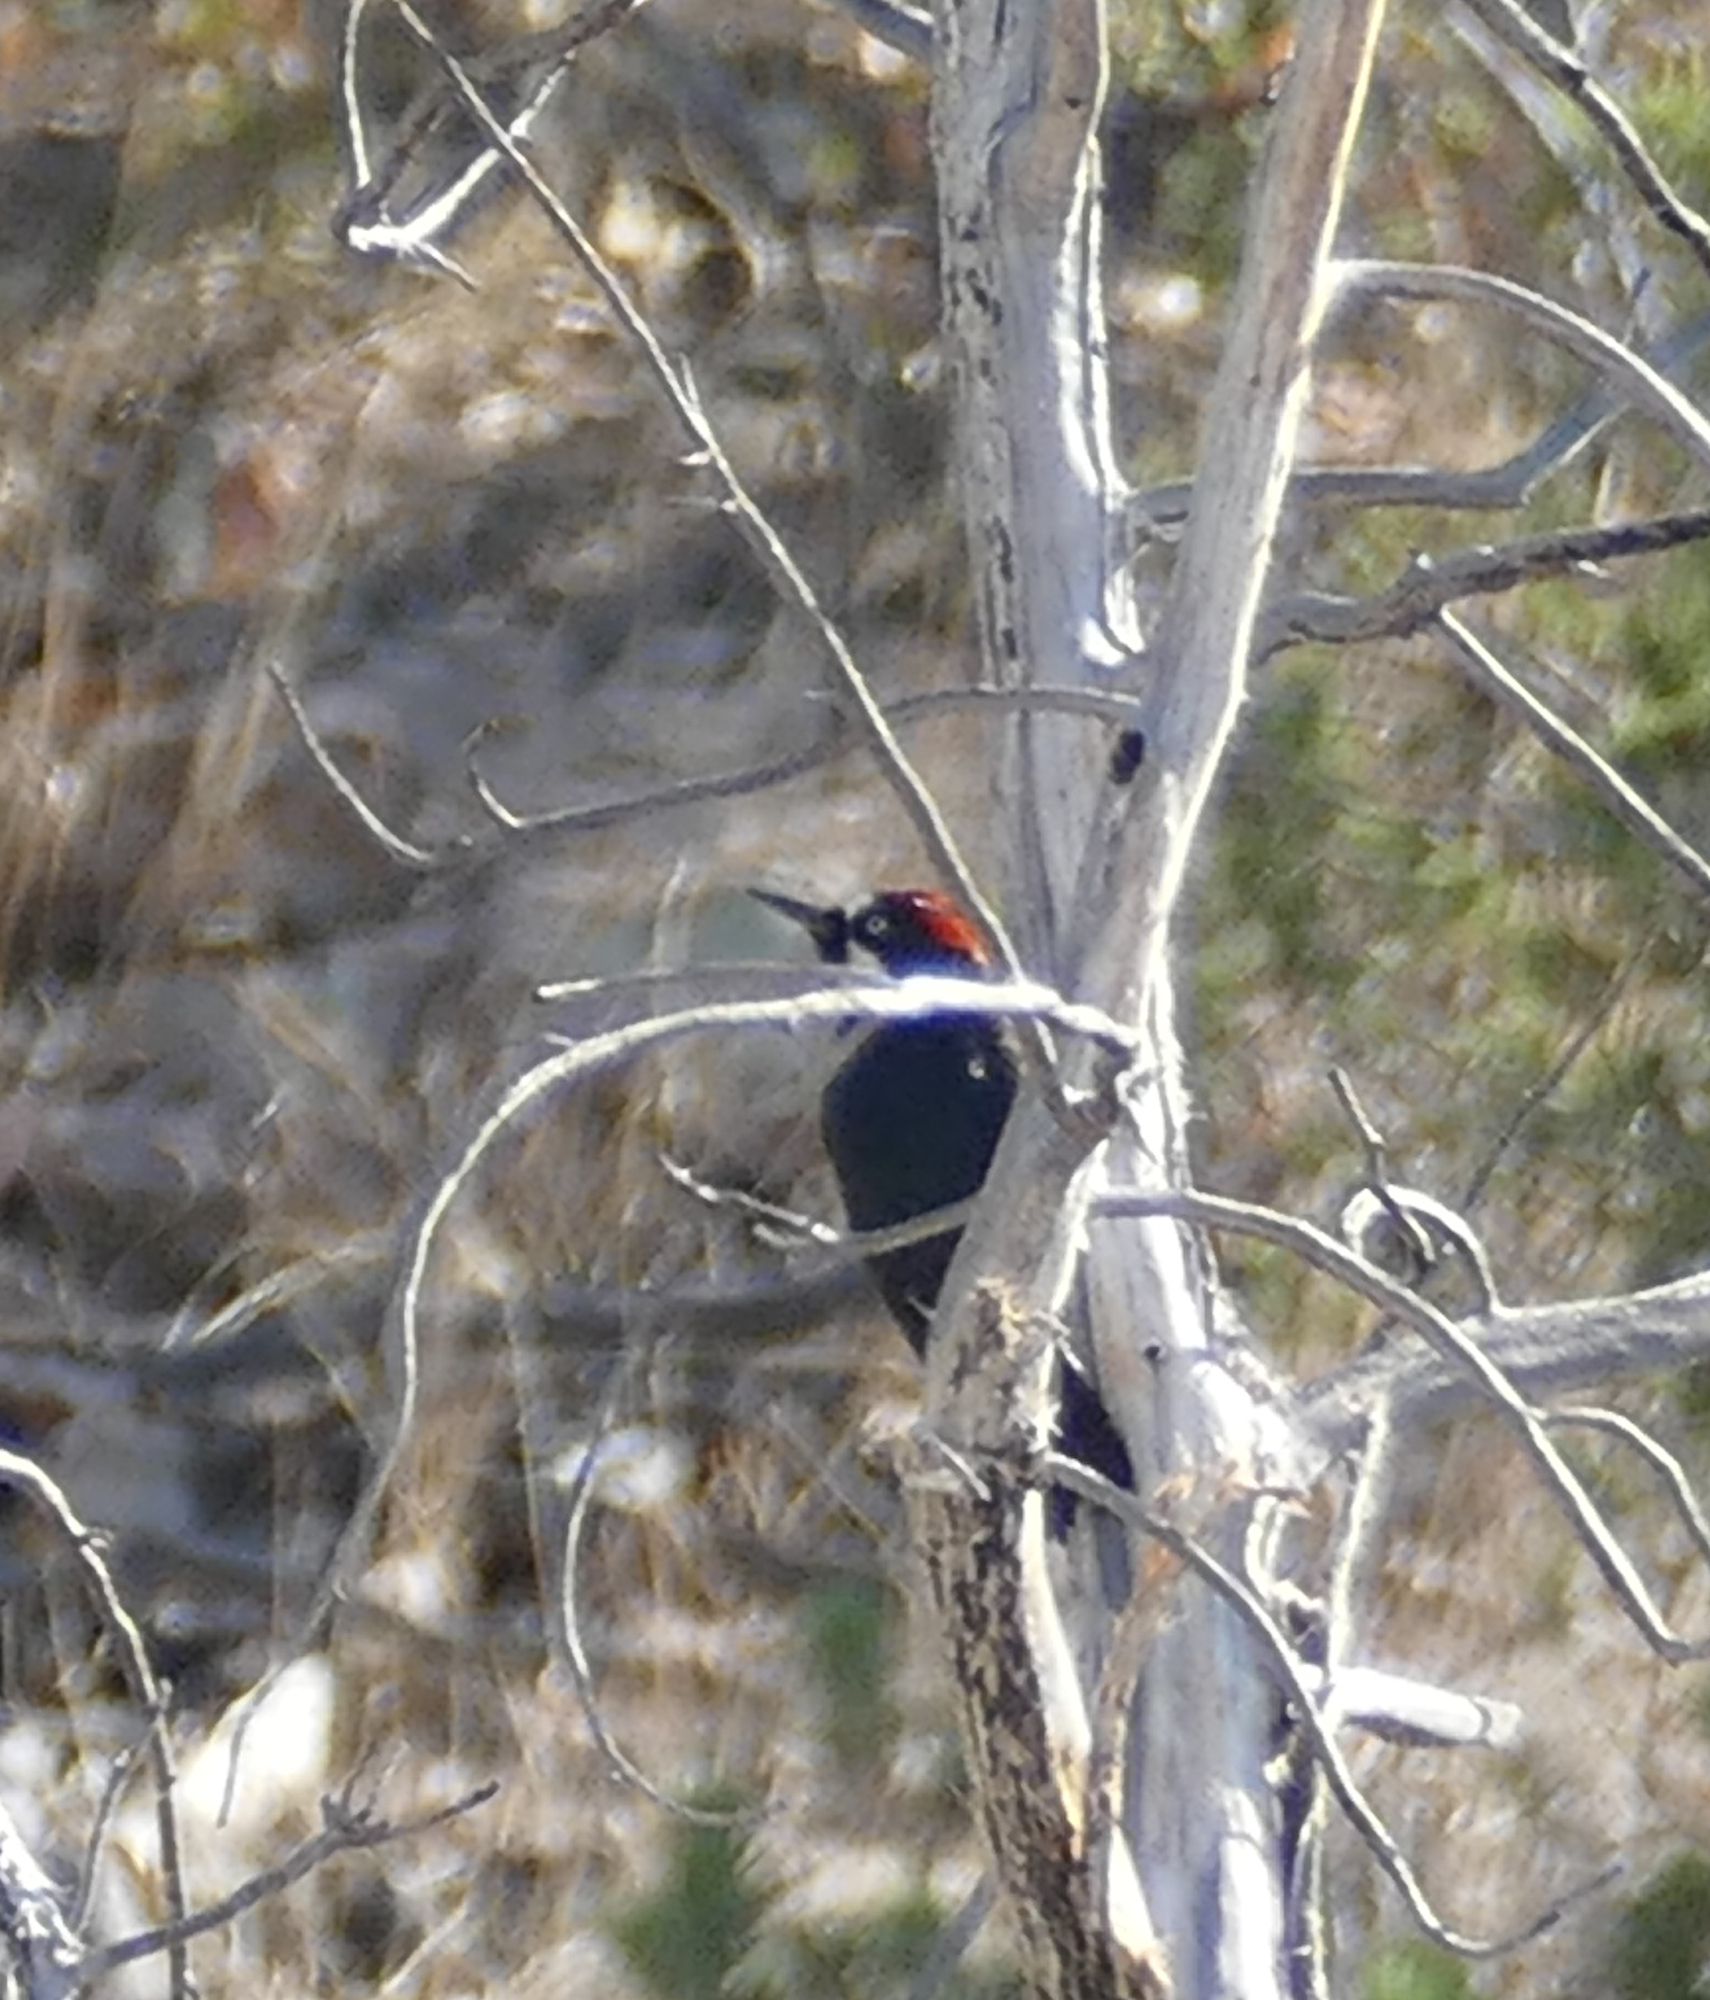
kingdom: Animalia
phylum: Chordata
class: Aves
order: Piciformes
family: Picidae
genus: Melanerpes
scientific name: Melanerpes formicivorus
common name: Acorn woodpecker
